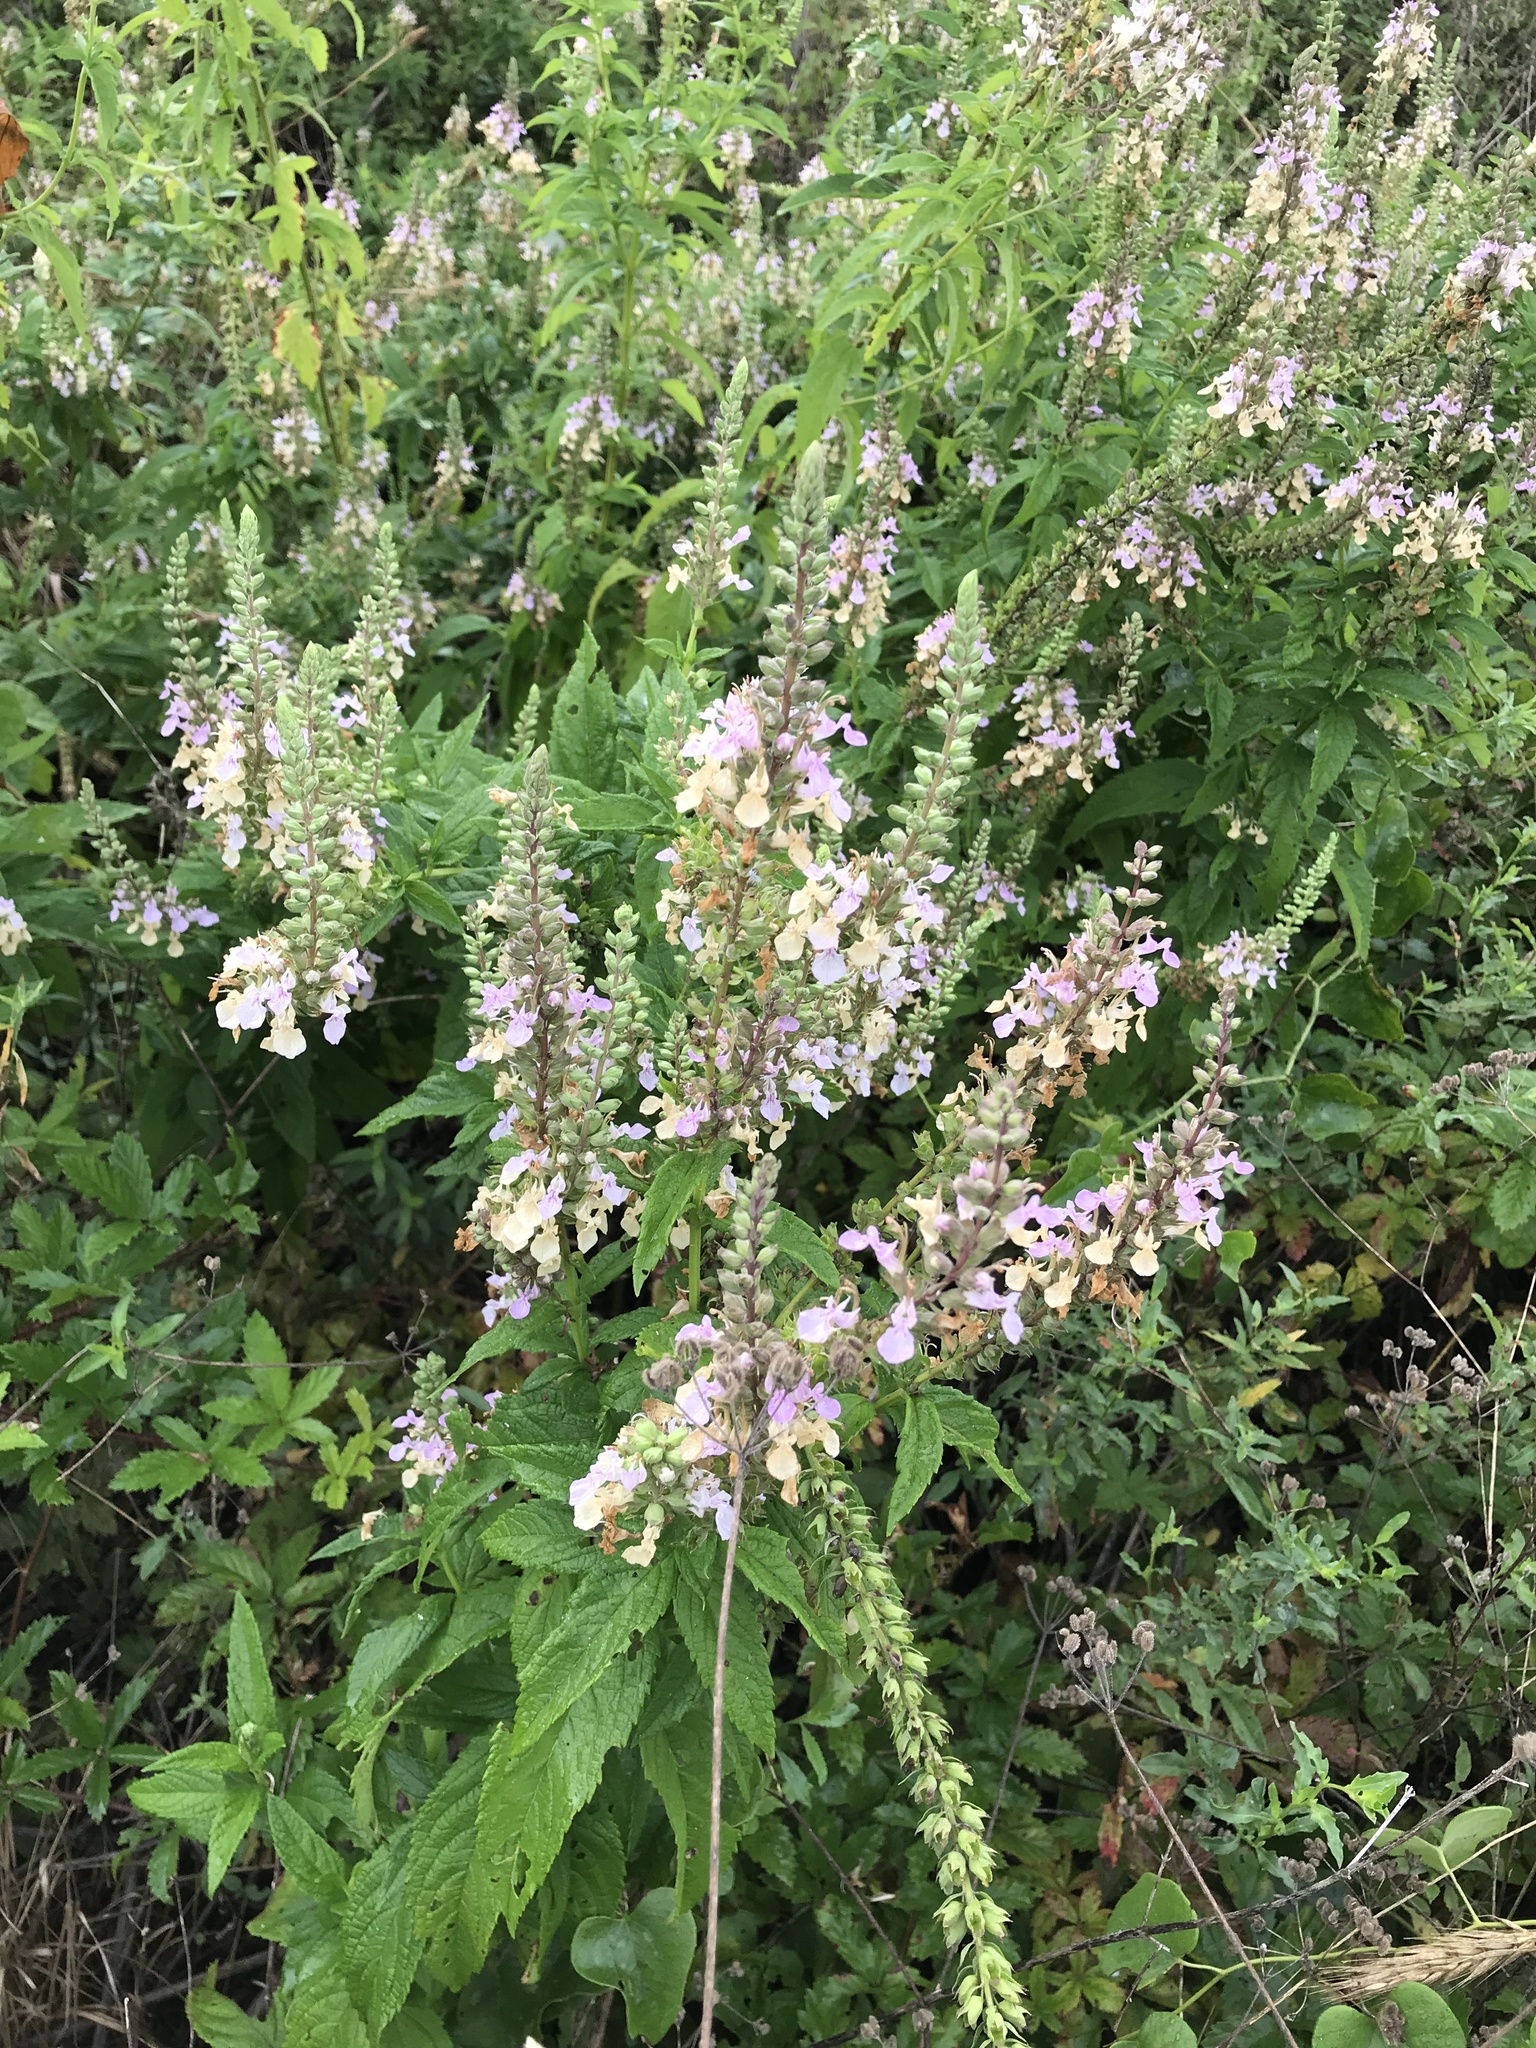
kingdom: Plantae
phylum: Tracheophyta
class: Magnoliopsida
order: Lamiales
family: Lamiaceae
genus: Teucrium
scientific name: Teucrium canadense
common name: American germander
